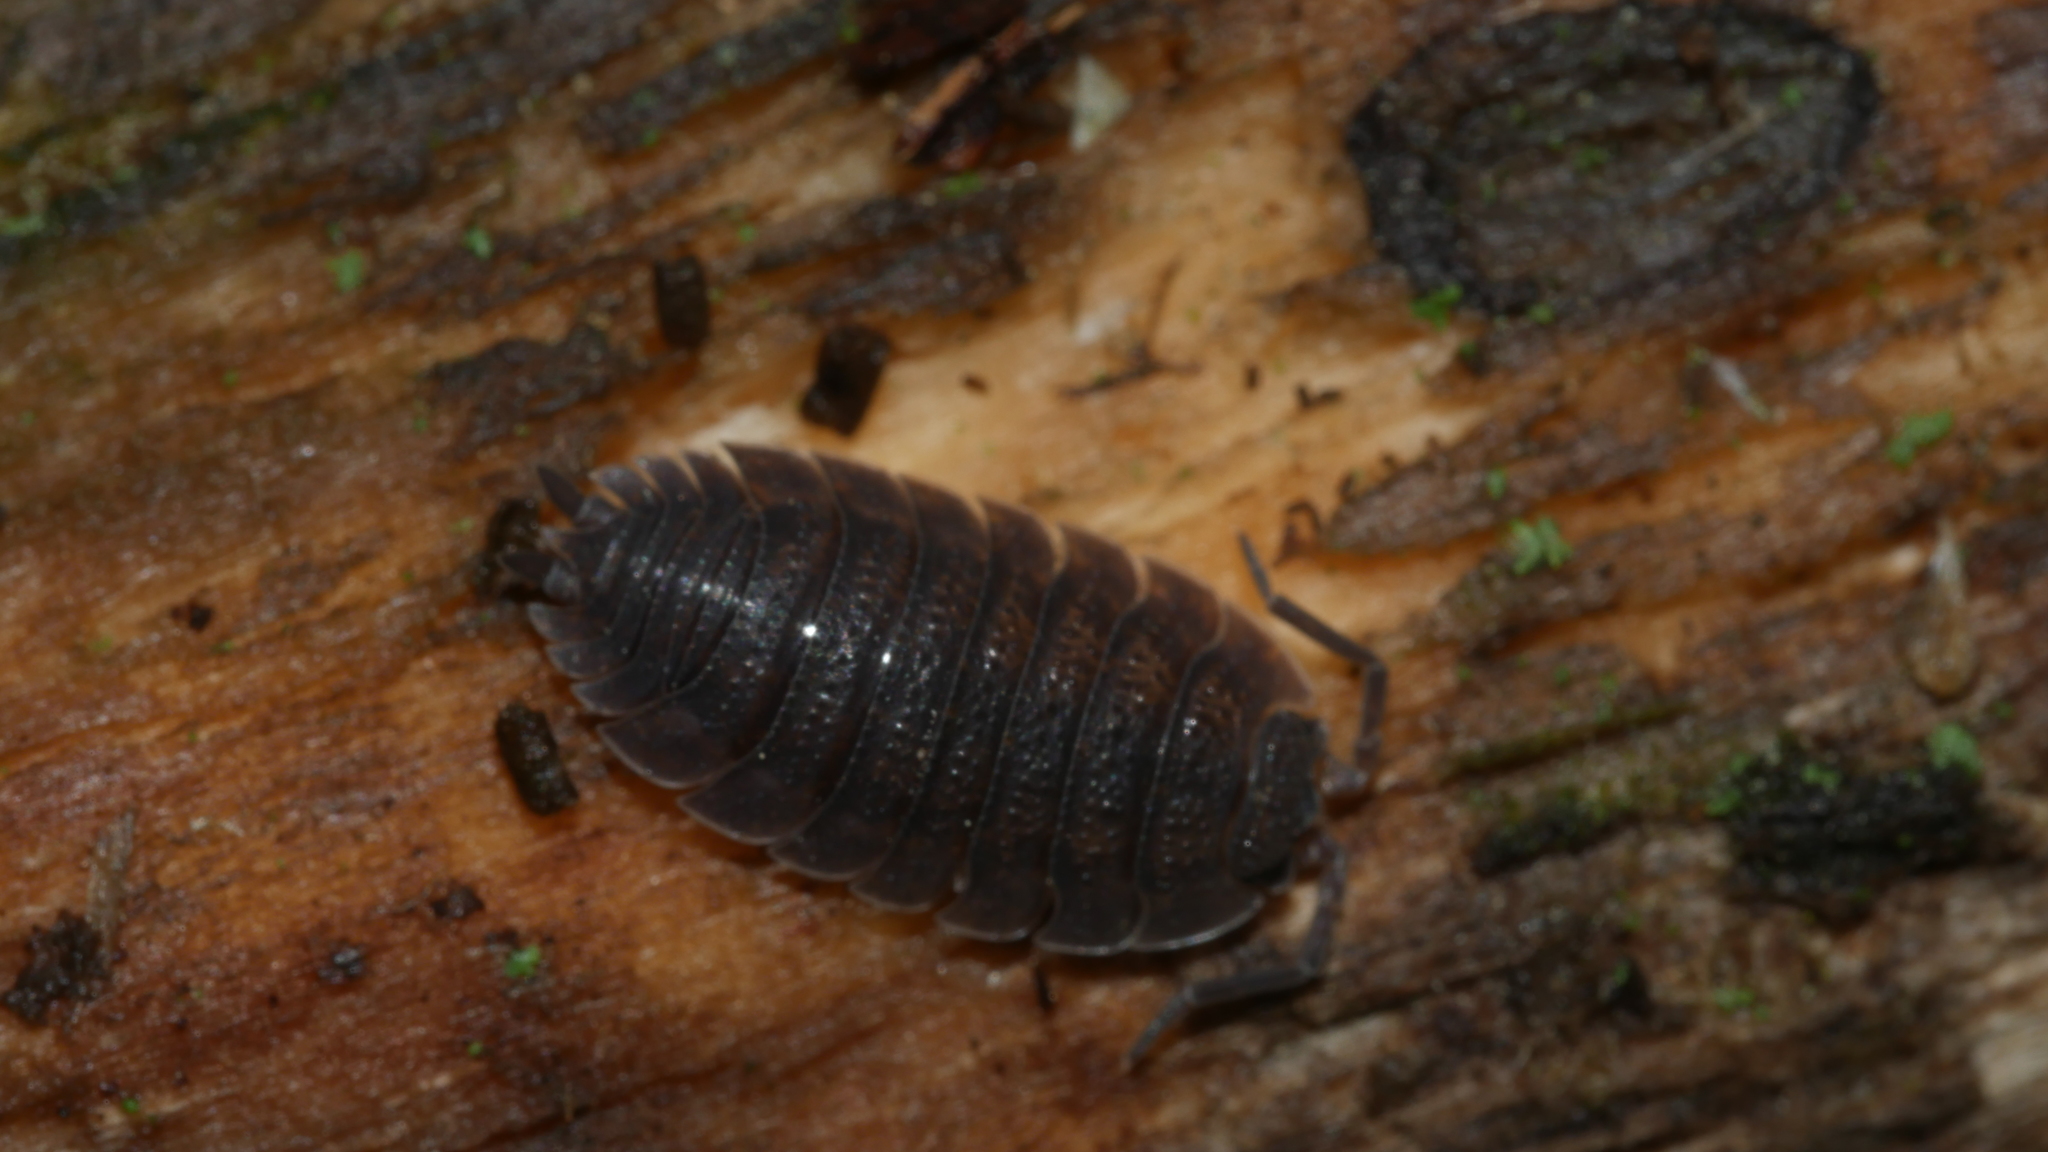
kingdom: Animalia
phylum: Arthropoda
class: Malacostraca
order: Isopoda
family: Porcellionidae
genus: Porcellio
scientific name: Porcellio scaber
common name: Common rough woodlouse
